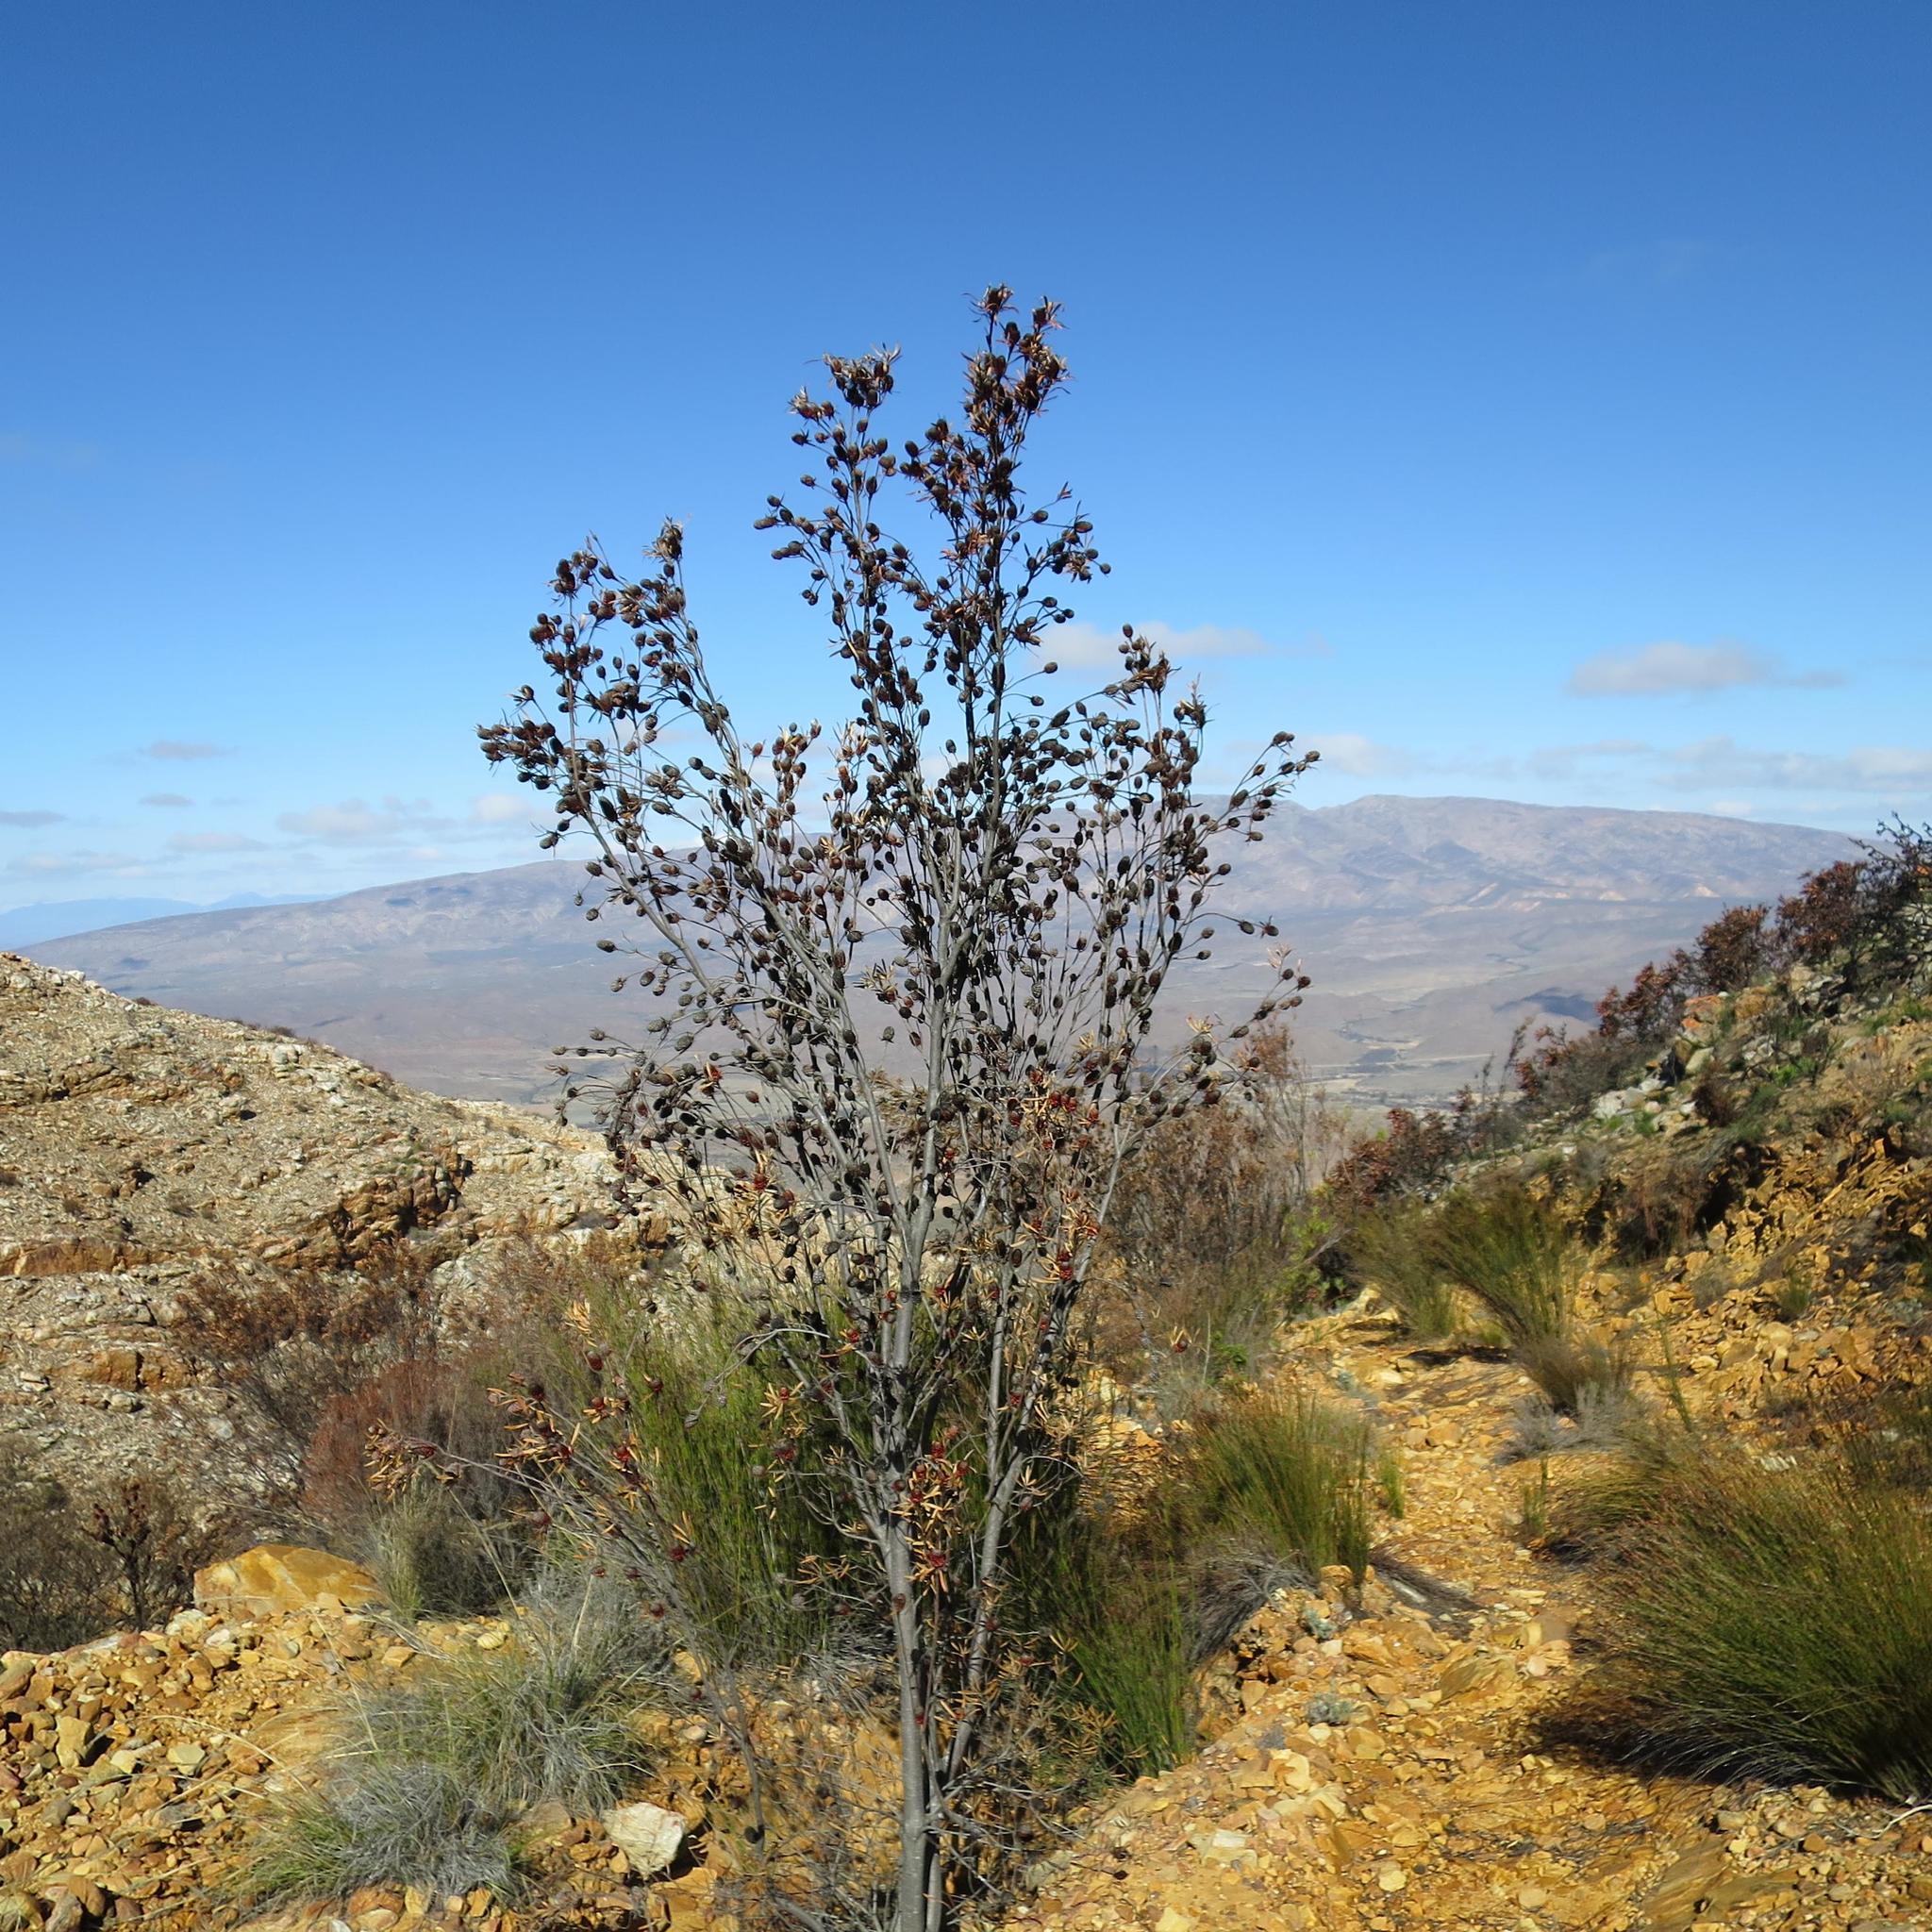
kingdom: Plantae
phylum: Tracheophyta
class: Magnoliopsida
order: Proteales
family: Proteaceae
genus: Leucadendron
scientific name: Leucadendron eucalyptifolium
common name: Gum-leaved conebush
